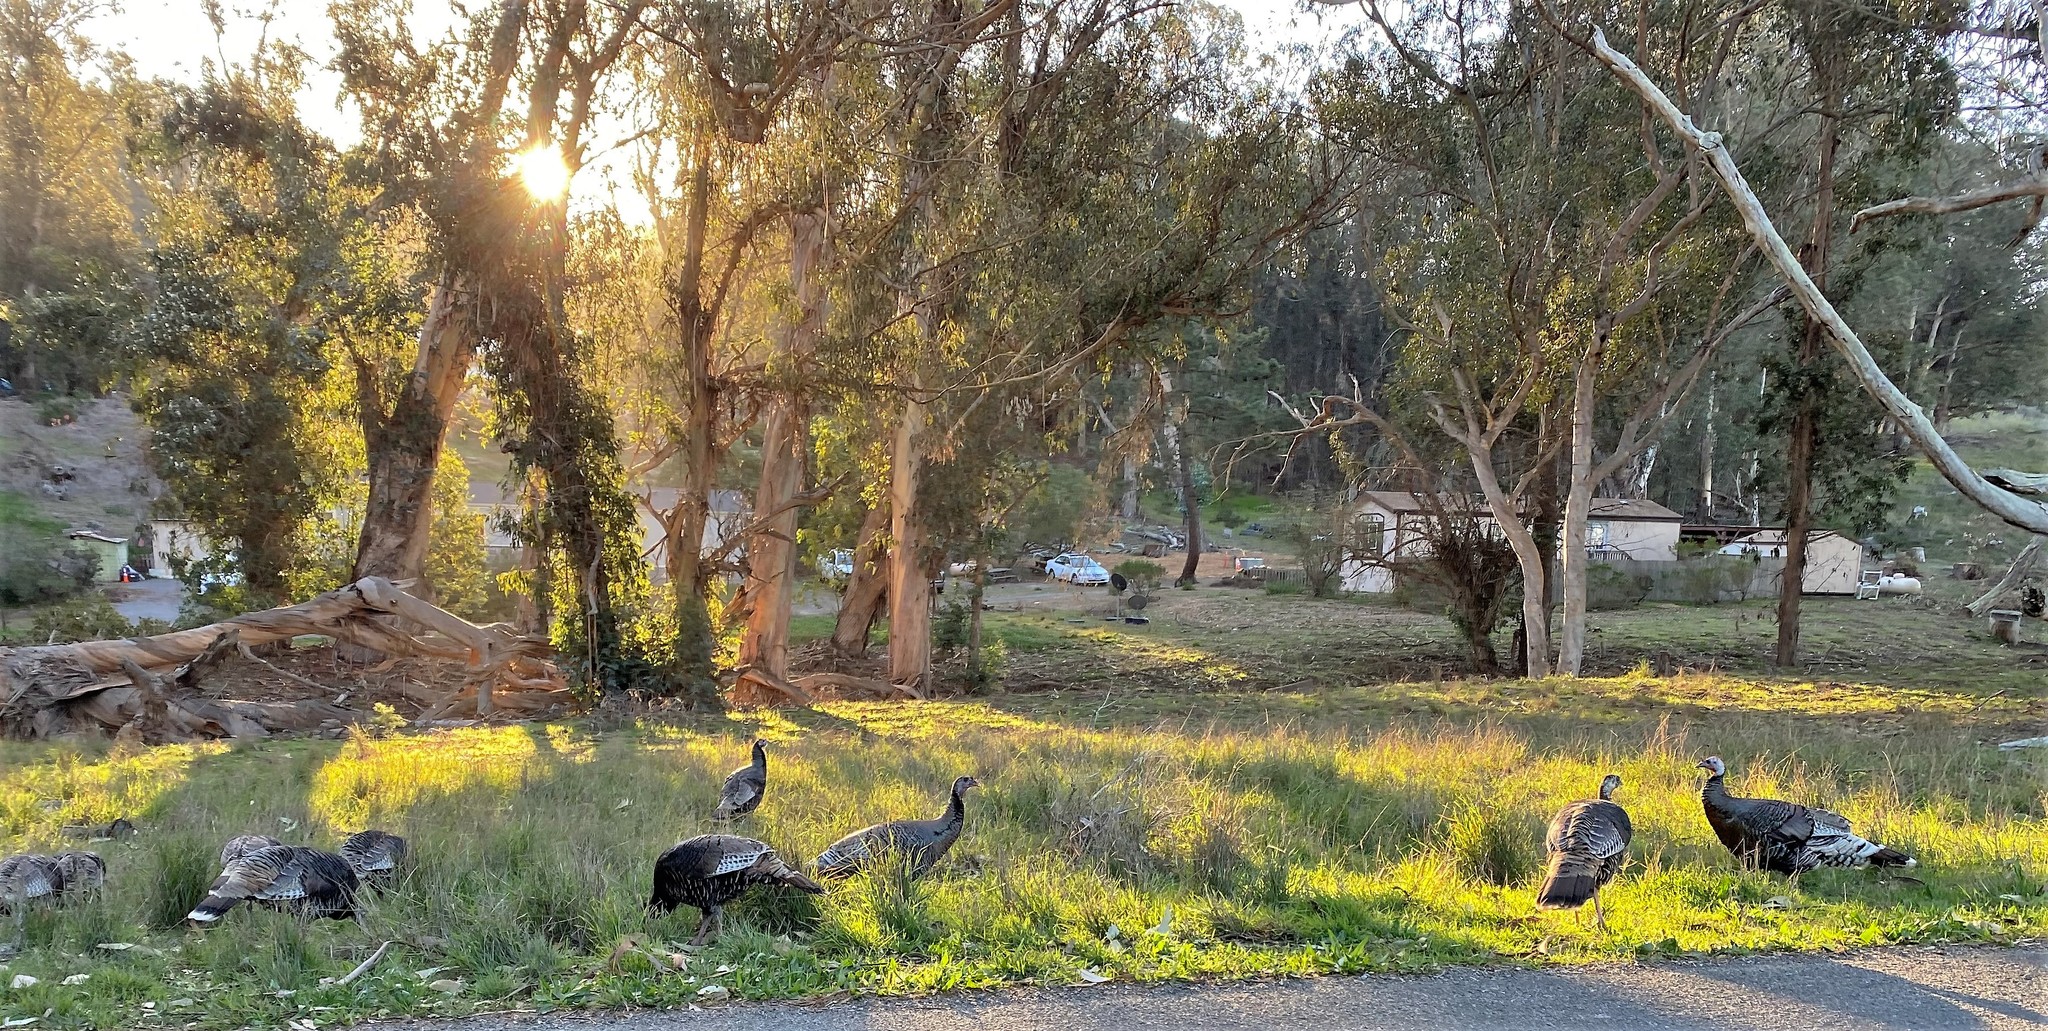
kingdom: Animalia
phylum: Chordata
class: Aves
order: Galliformes
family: Phasianidae
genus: Meleagris
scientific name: Meleagris gallopavo
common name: Wild turkey
